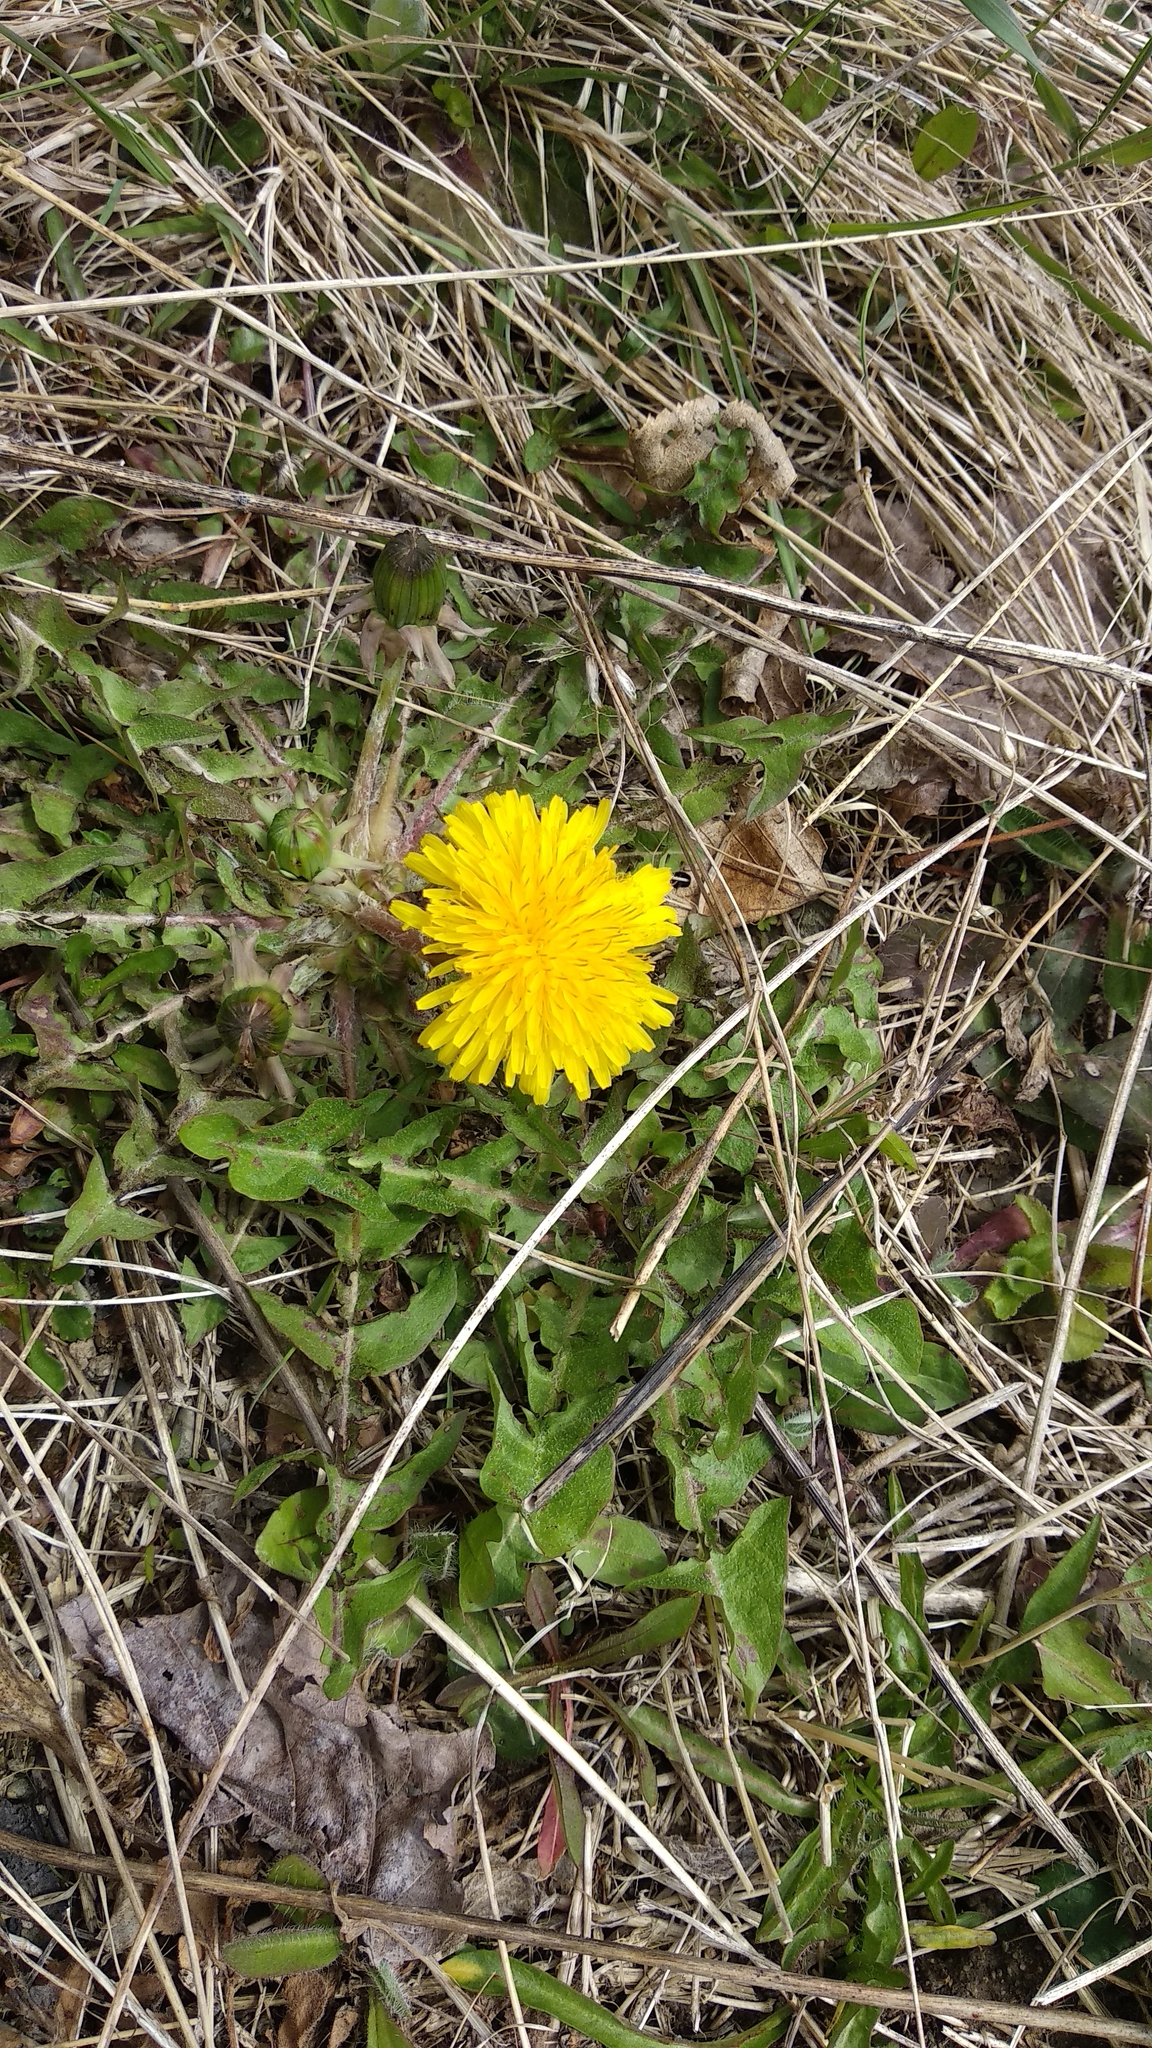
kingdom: Plantae
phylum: Tracheophyta
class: Magnoliopsida
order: Asterales
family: Asteraceae
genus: Taraxacum
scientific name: Taraxacum officinale
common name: Common dandelion
